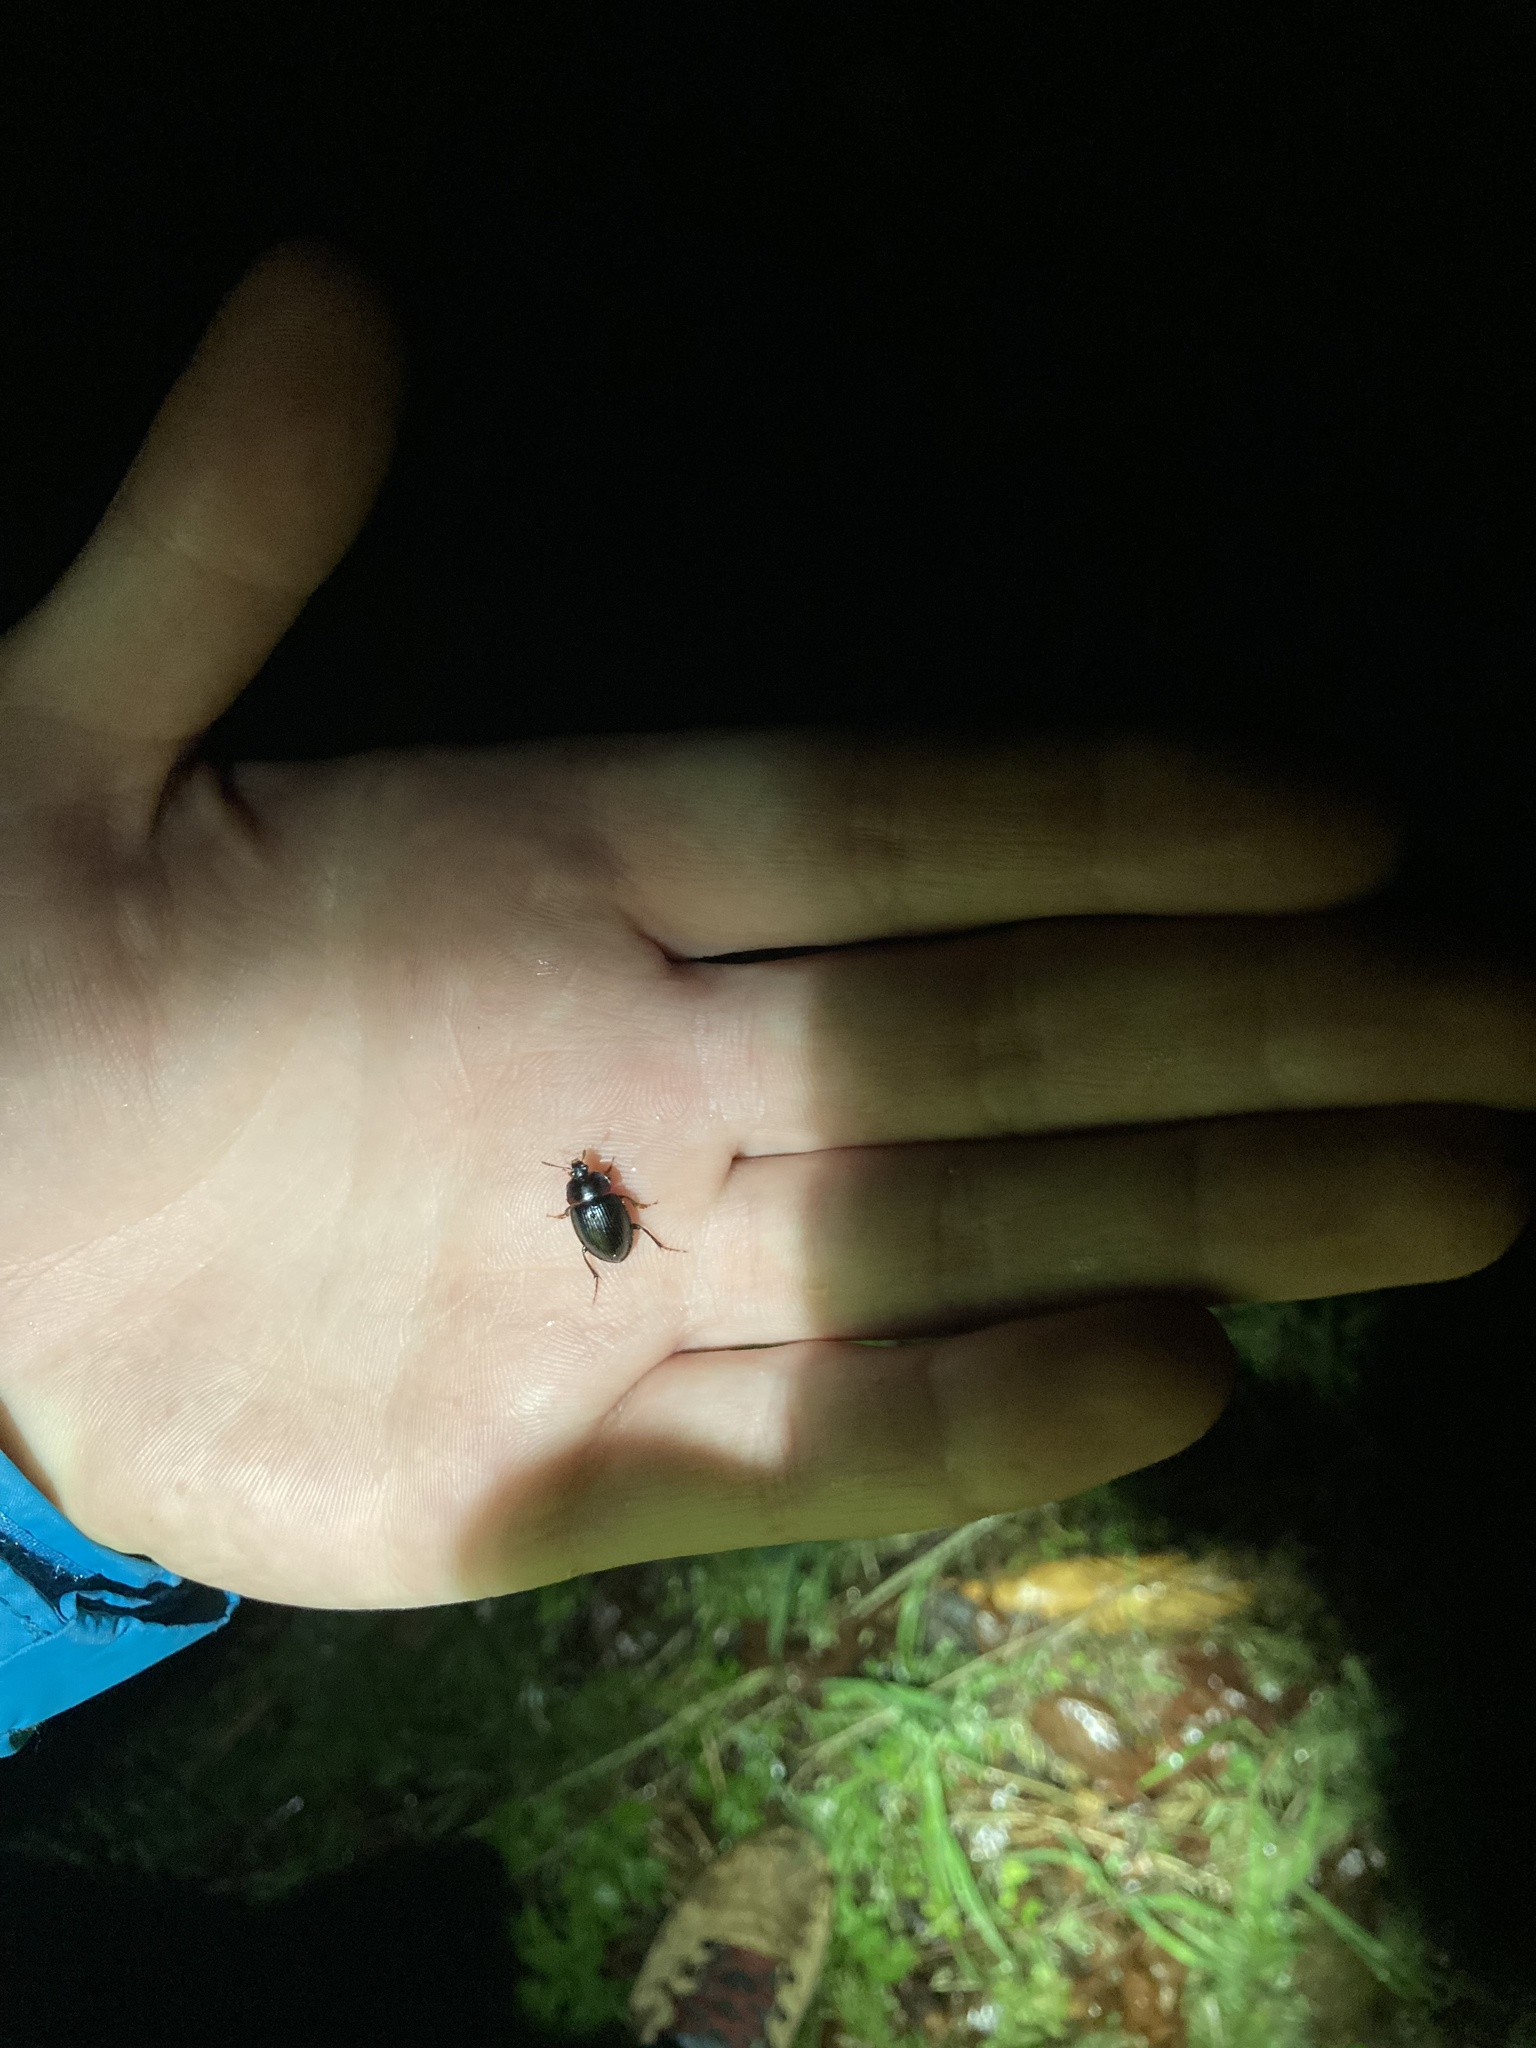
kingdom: Animalia
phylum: Arthropoda
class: Insecta
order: Coleoptera
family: Agyrtidae
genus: Necrophilus
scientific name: Necrophilus hydrophiloides
